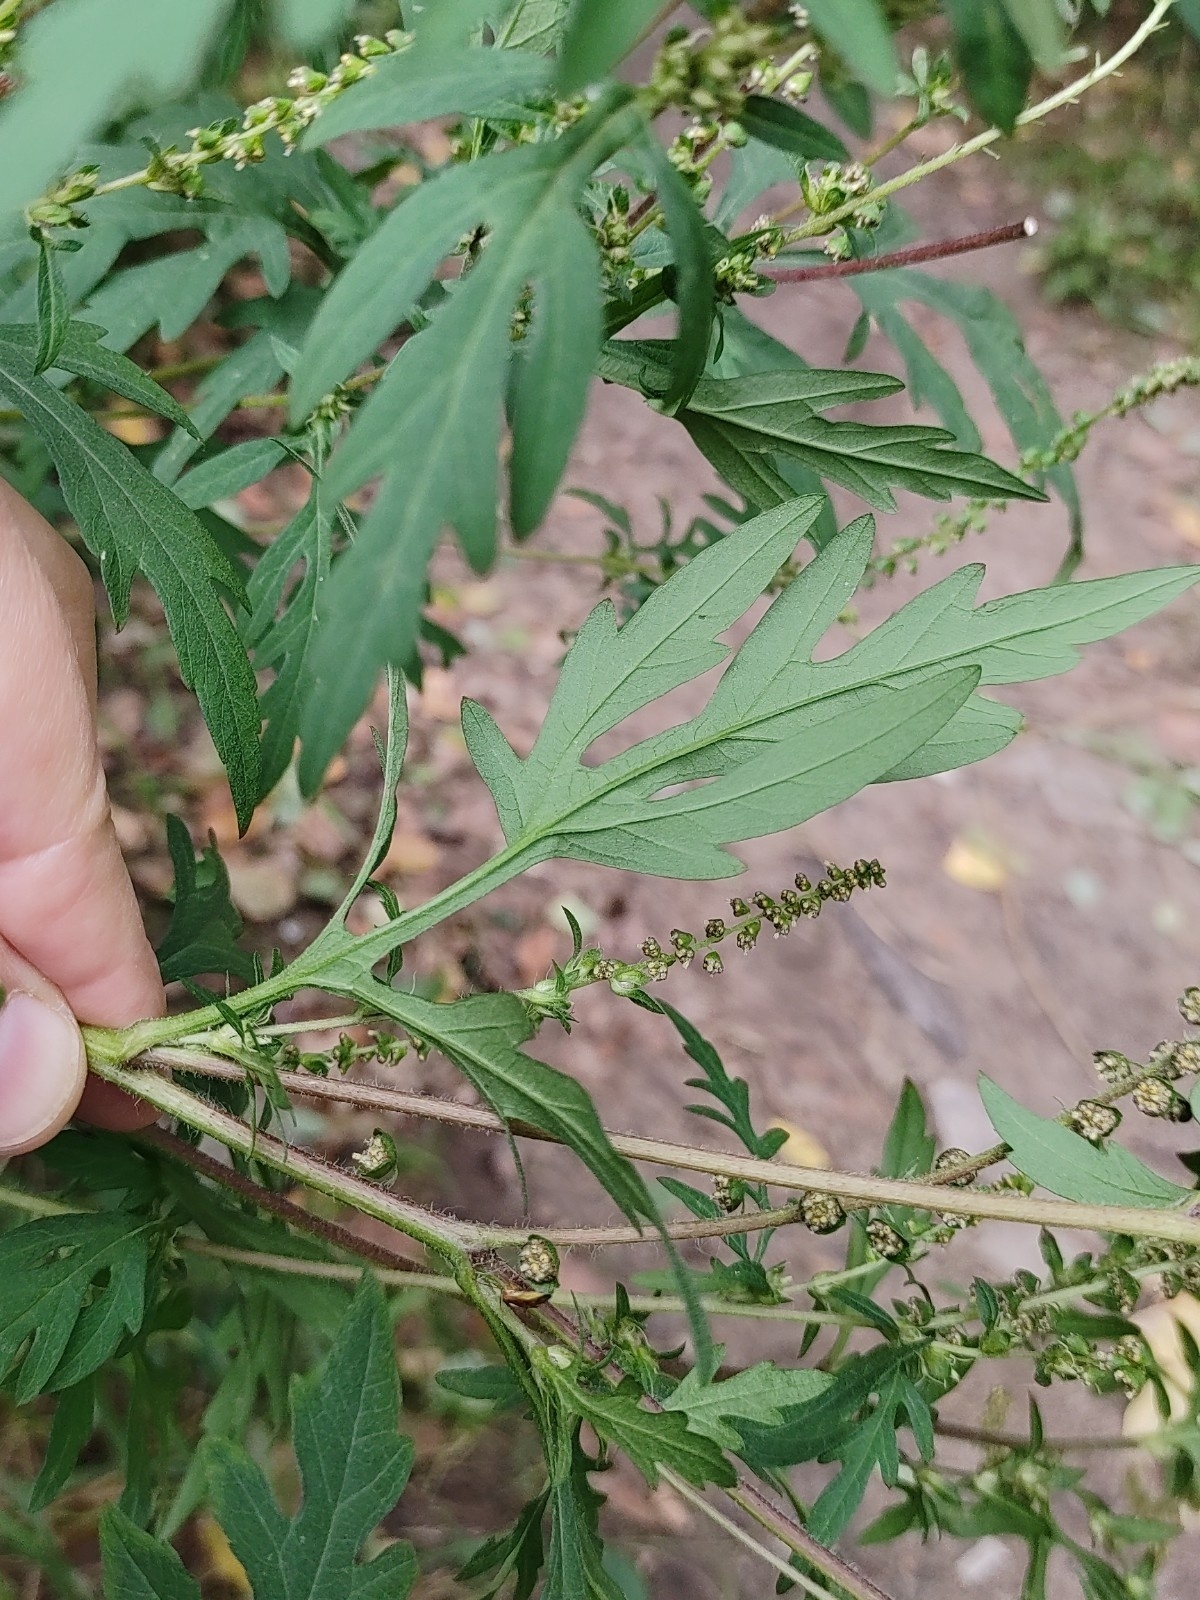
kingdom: Plantae
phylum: Tracheophyta
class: Magnoliopsida
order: Asterales
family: Asteraceae
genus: Ambrosia
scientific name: Ambrosia artemisiifolia
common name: Annual ragweed
